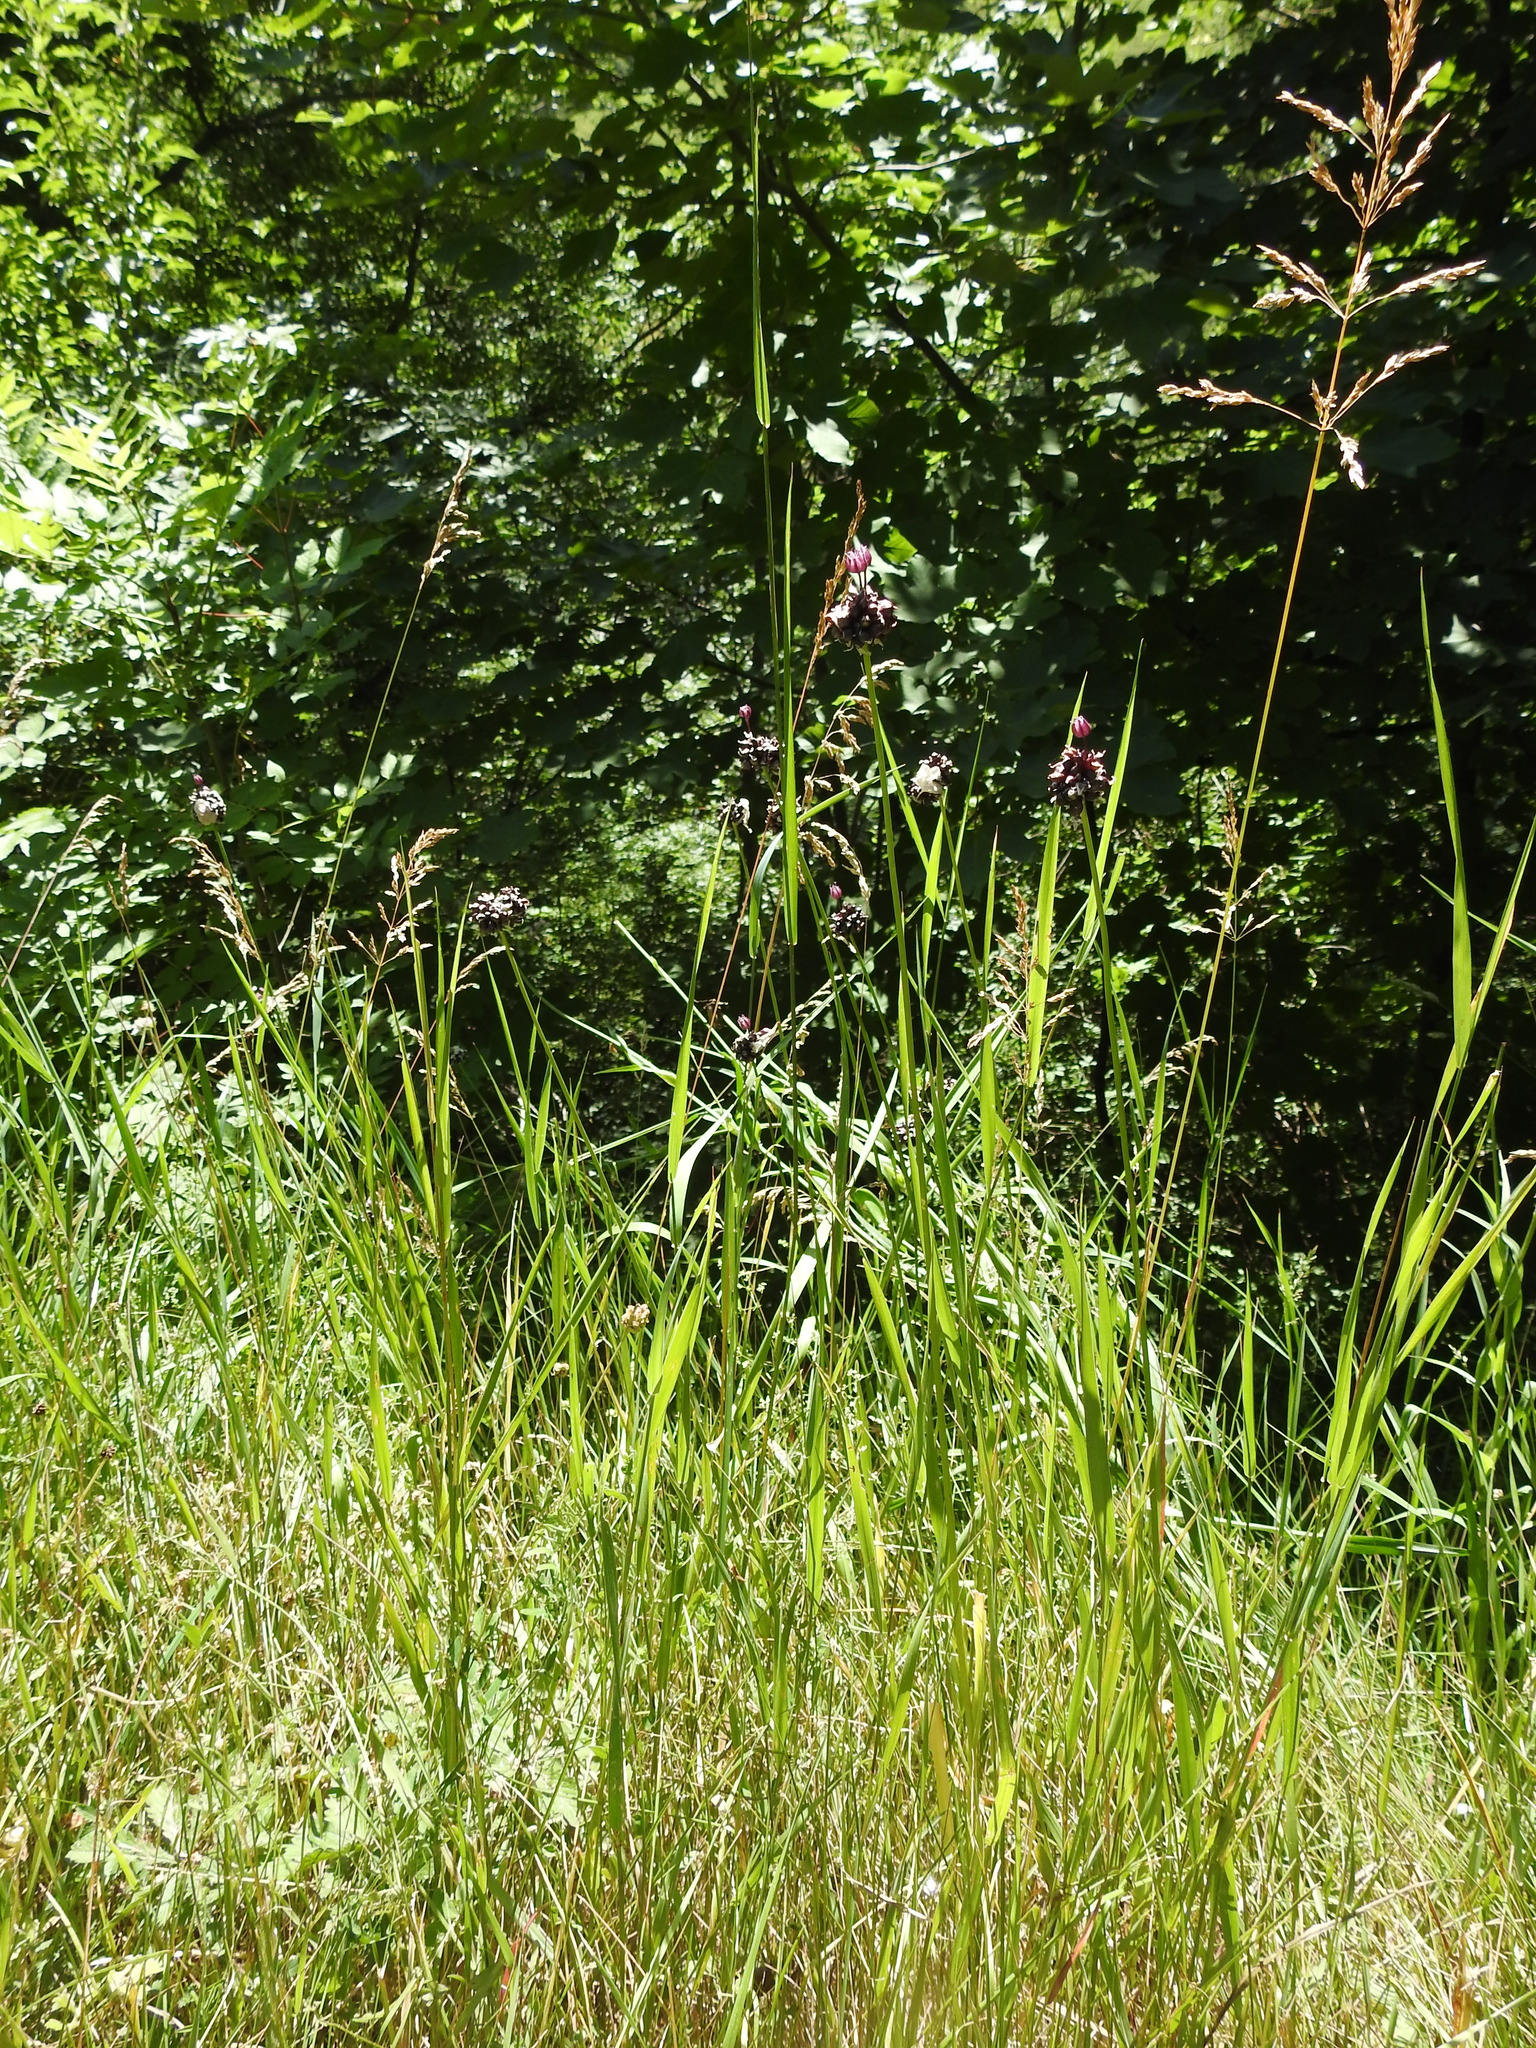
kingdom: Plantae
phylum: Tracheophyta
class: Liliopsida
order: Asparagales
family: Amaryllidaceae
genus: Allium
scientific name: Allium scorodoprasum
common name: Sand leek
